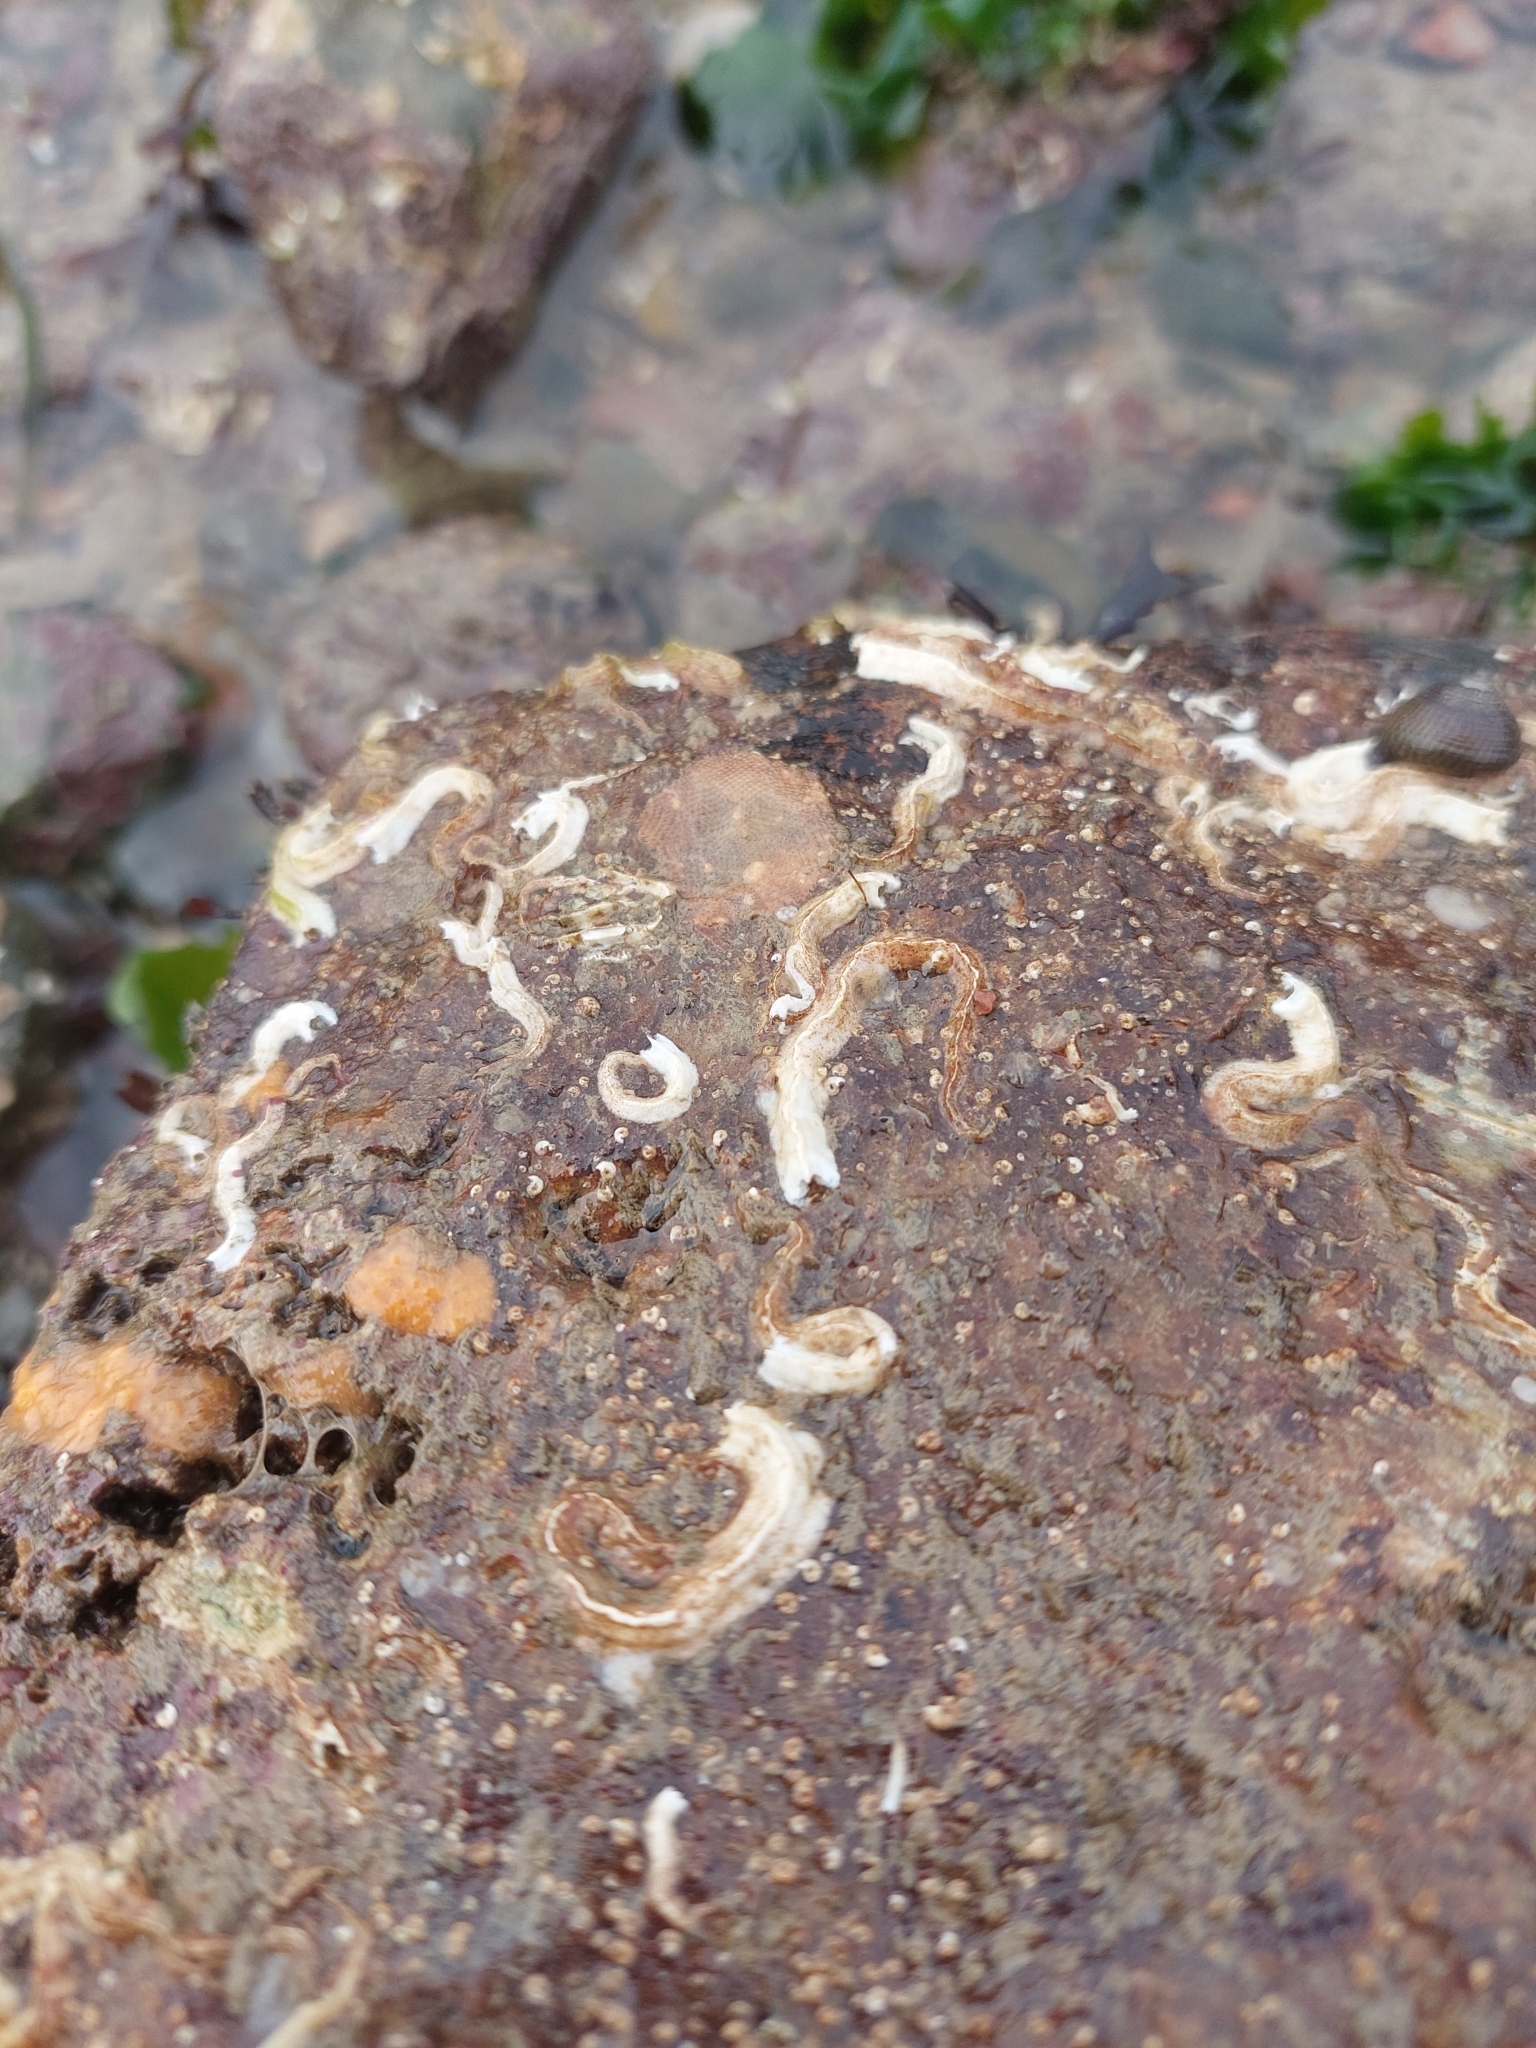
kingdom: Animalia
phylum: Annelida
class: Polychaeta
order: Sabellida
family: Serpulidae
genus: Spirobranchus
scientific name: Spirobranchus triqueter
